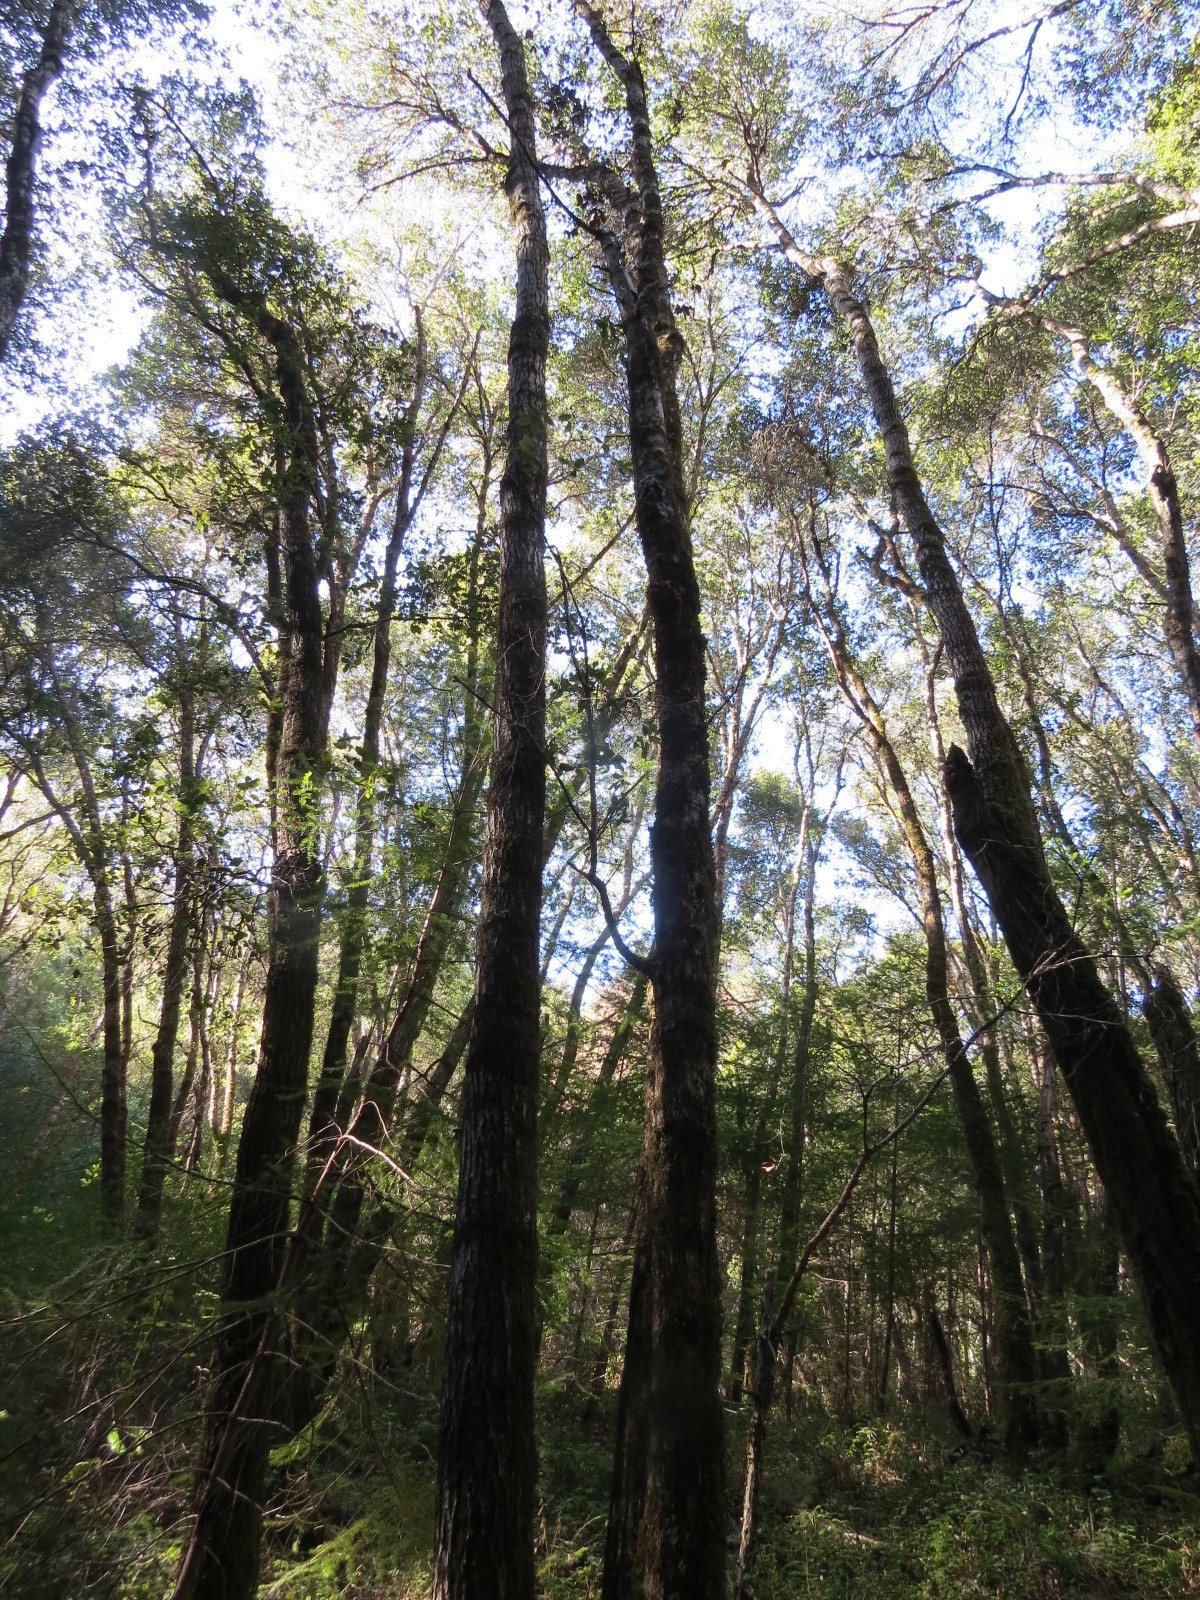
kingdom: Fungi
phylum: Basidiomycota
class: Tremellomycetes
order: Tremellales
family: Tremellaceae
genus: Phaeotremella
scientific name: Phaeotremella foliacea
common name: Leafy brain
